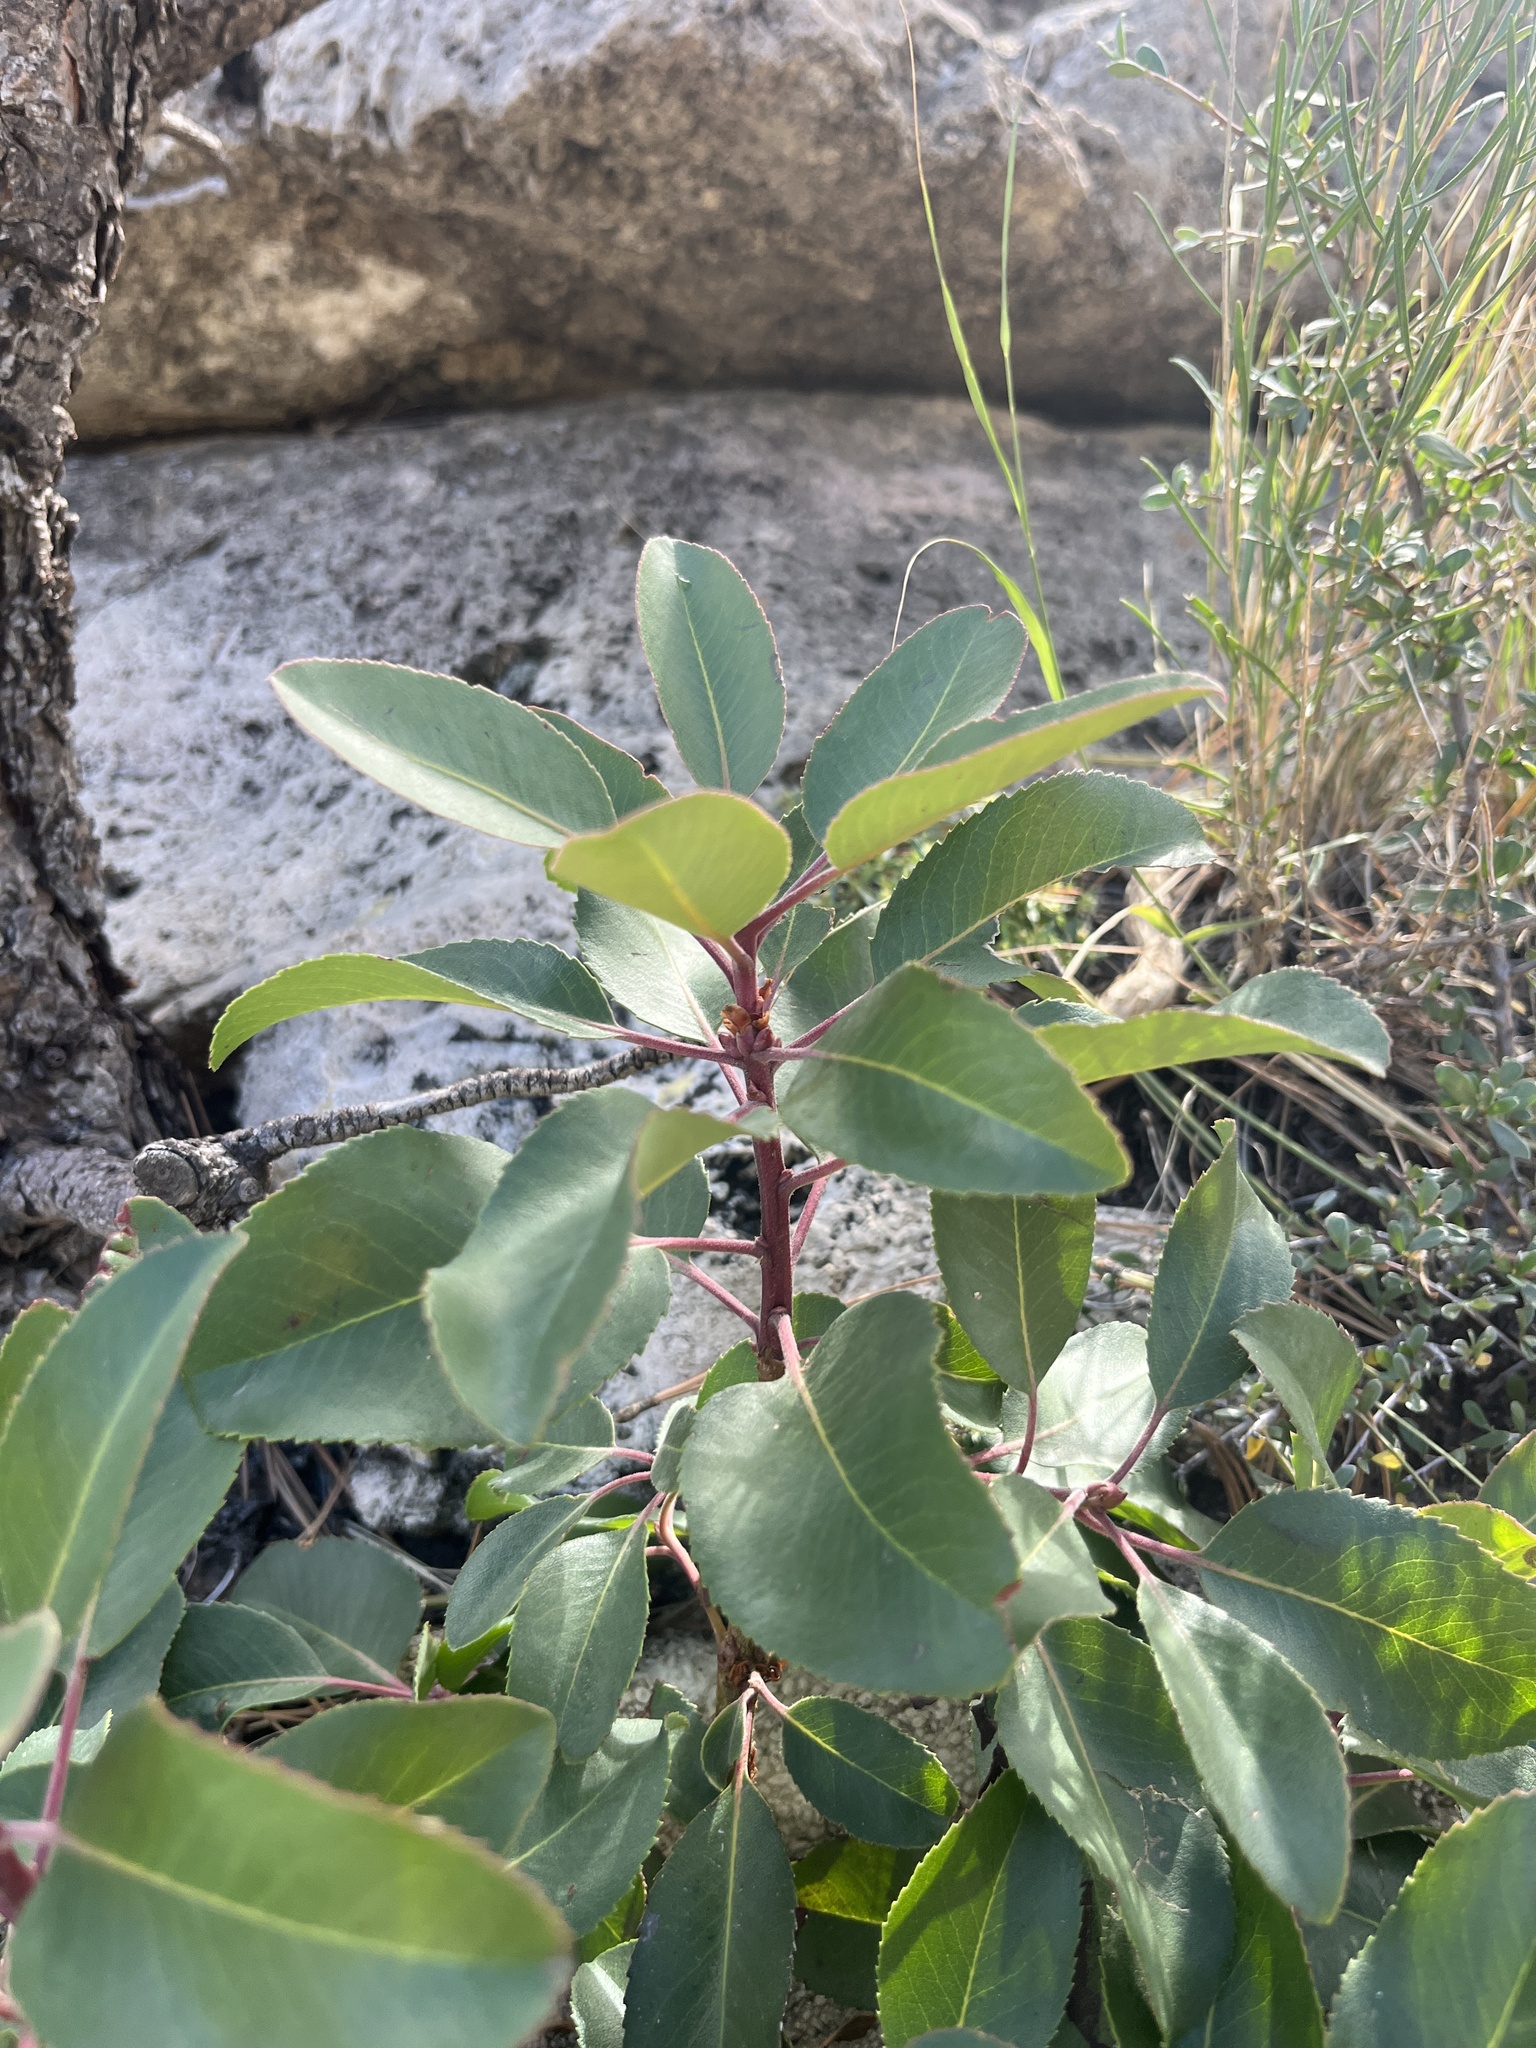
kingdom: Plantae
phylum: Tracheophyta
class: Magnoliopsida
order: Ericales
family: Ericaceae
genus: Arbutus
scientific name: Arbutus xalapensis
